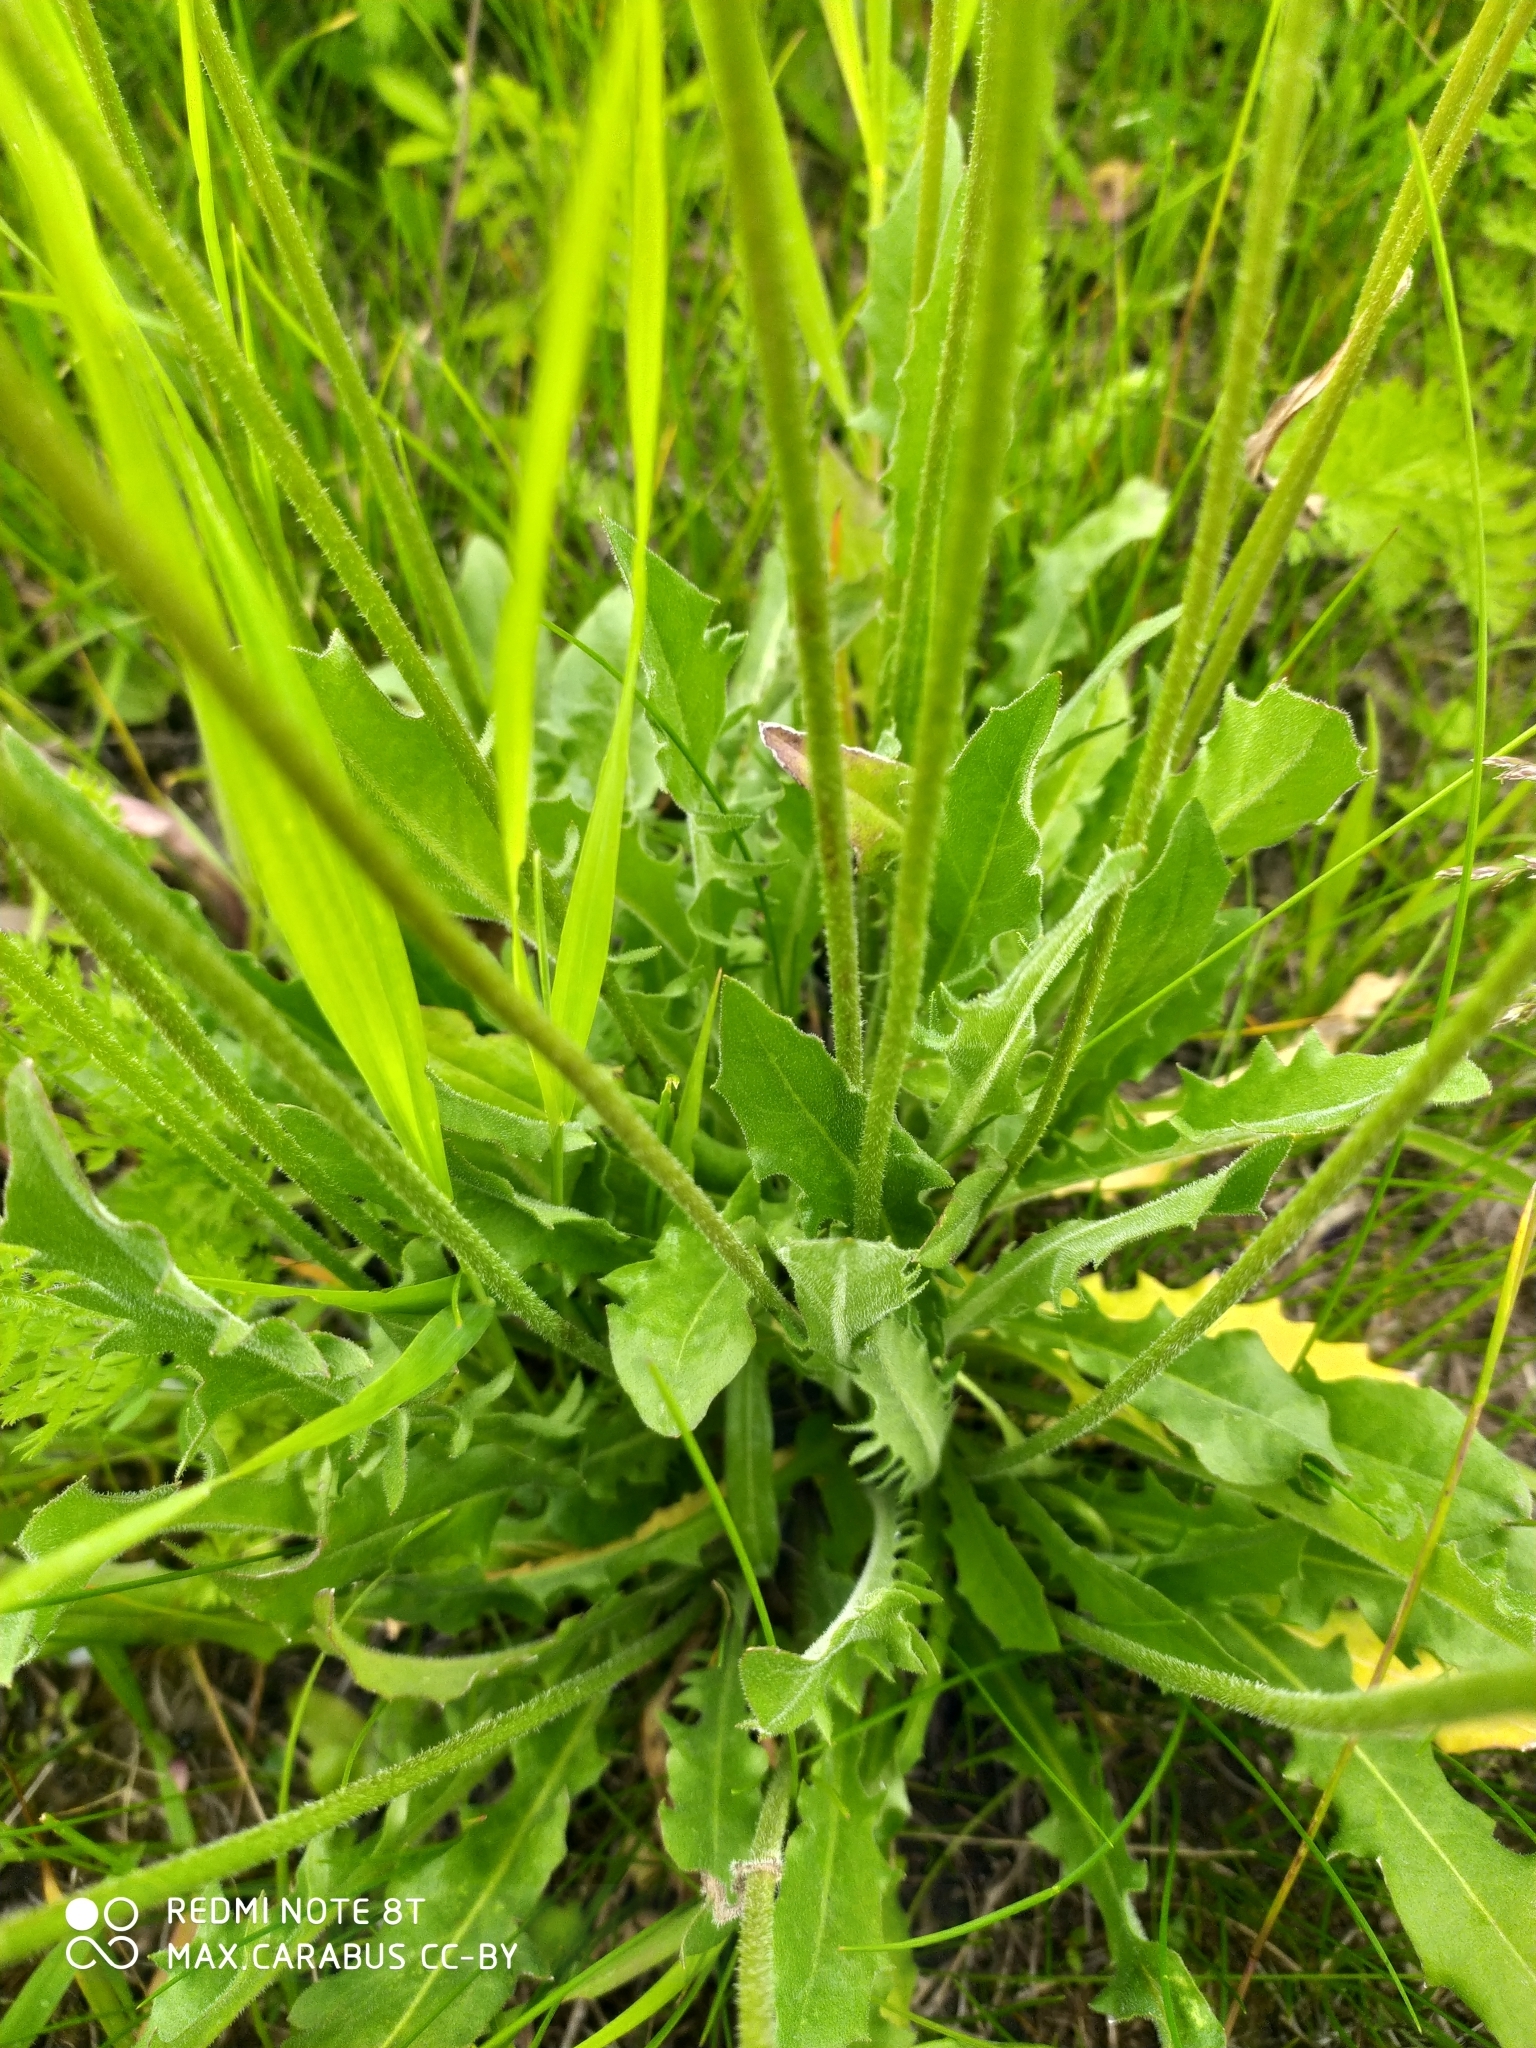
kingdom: Plantae
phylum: Tracheophyta
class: Magnoliopsida
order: Asterales
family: Asteraceae
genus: Leontodon
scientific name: Leontodon hispidus
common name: Rough hawkbit
